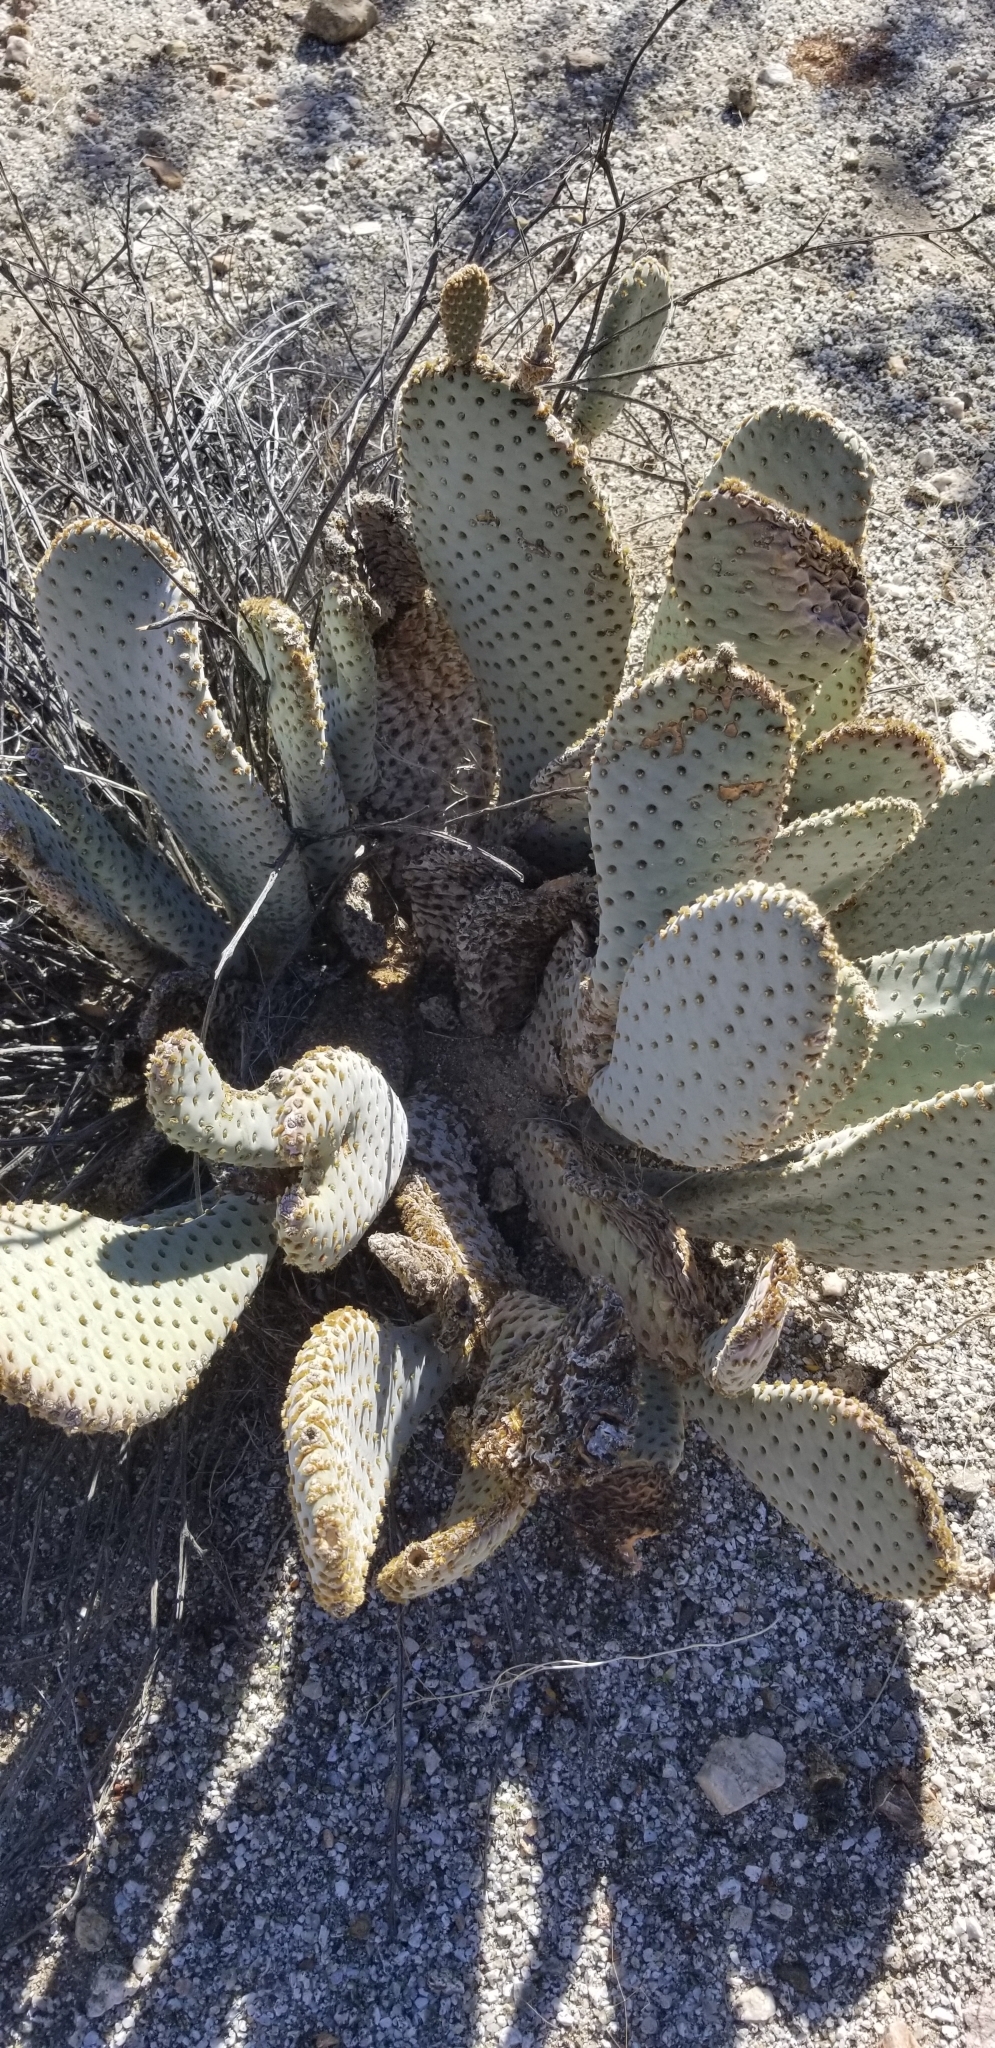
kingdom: Plantae
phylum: Tracheophyta
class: Magnoliopsida
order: Caryophyllales
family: Cactaceae
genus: Opuntia
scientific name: Opuntia basilaris
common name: Beavertail prickly-pear
